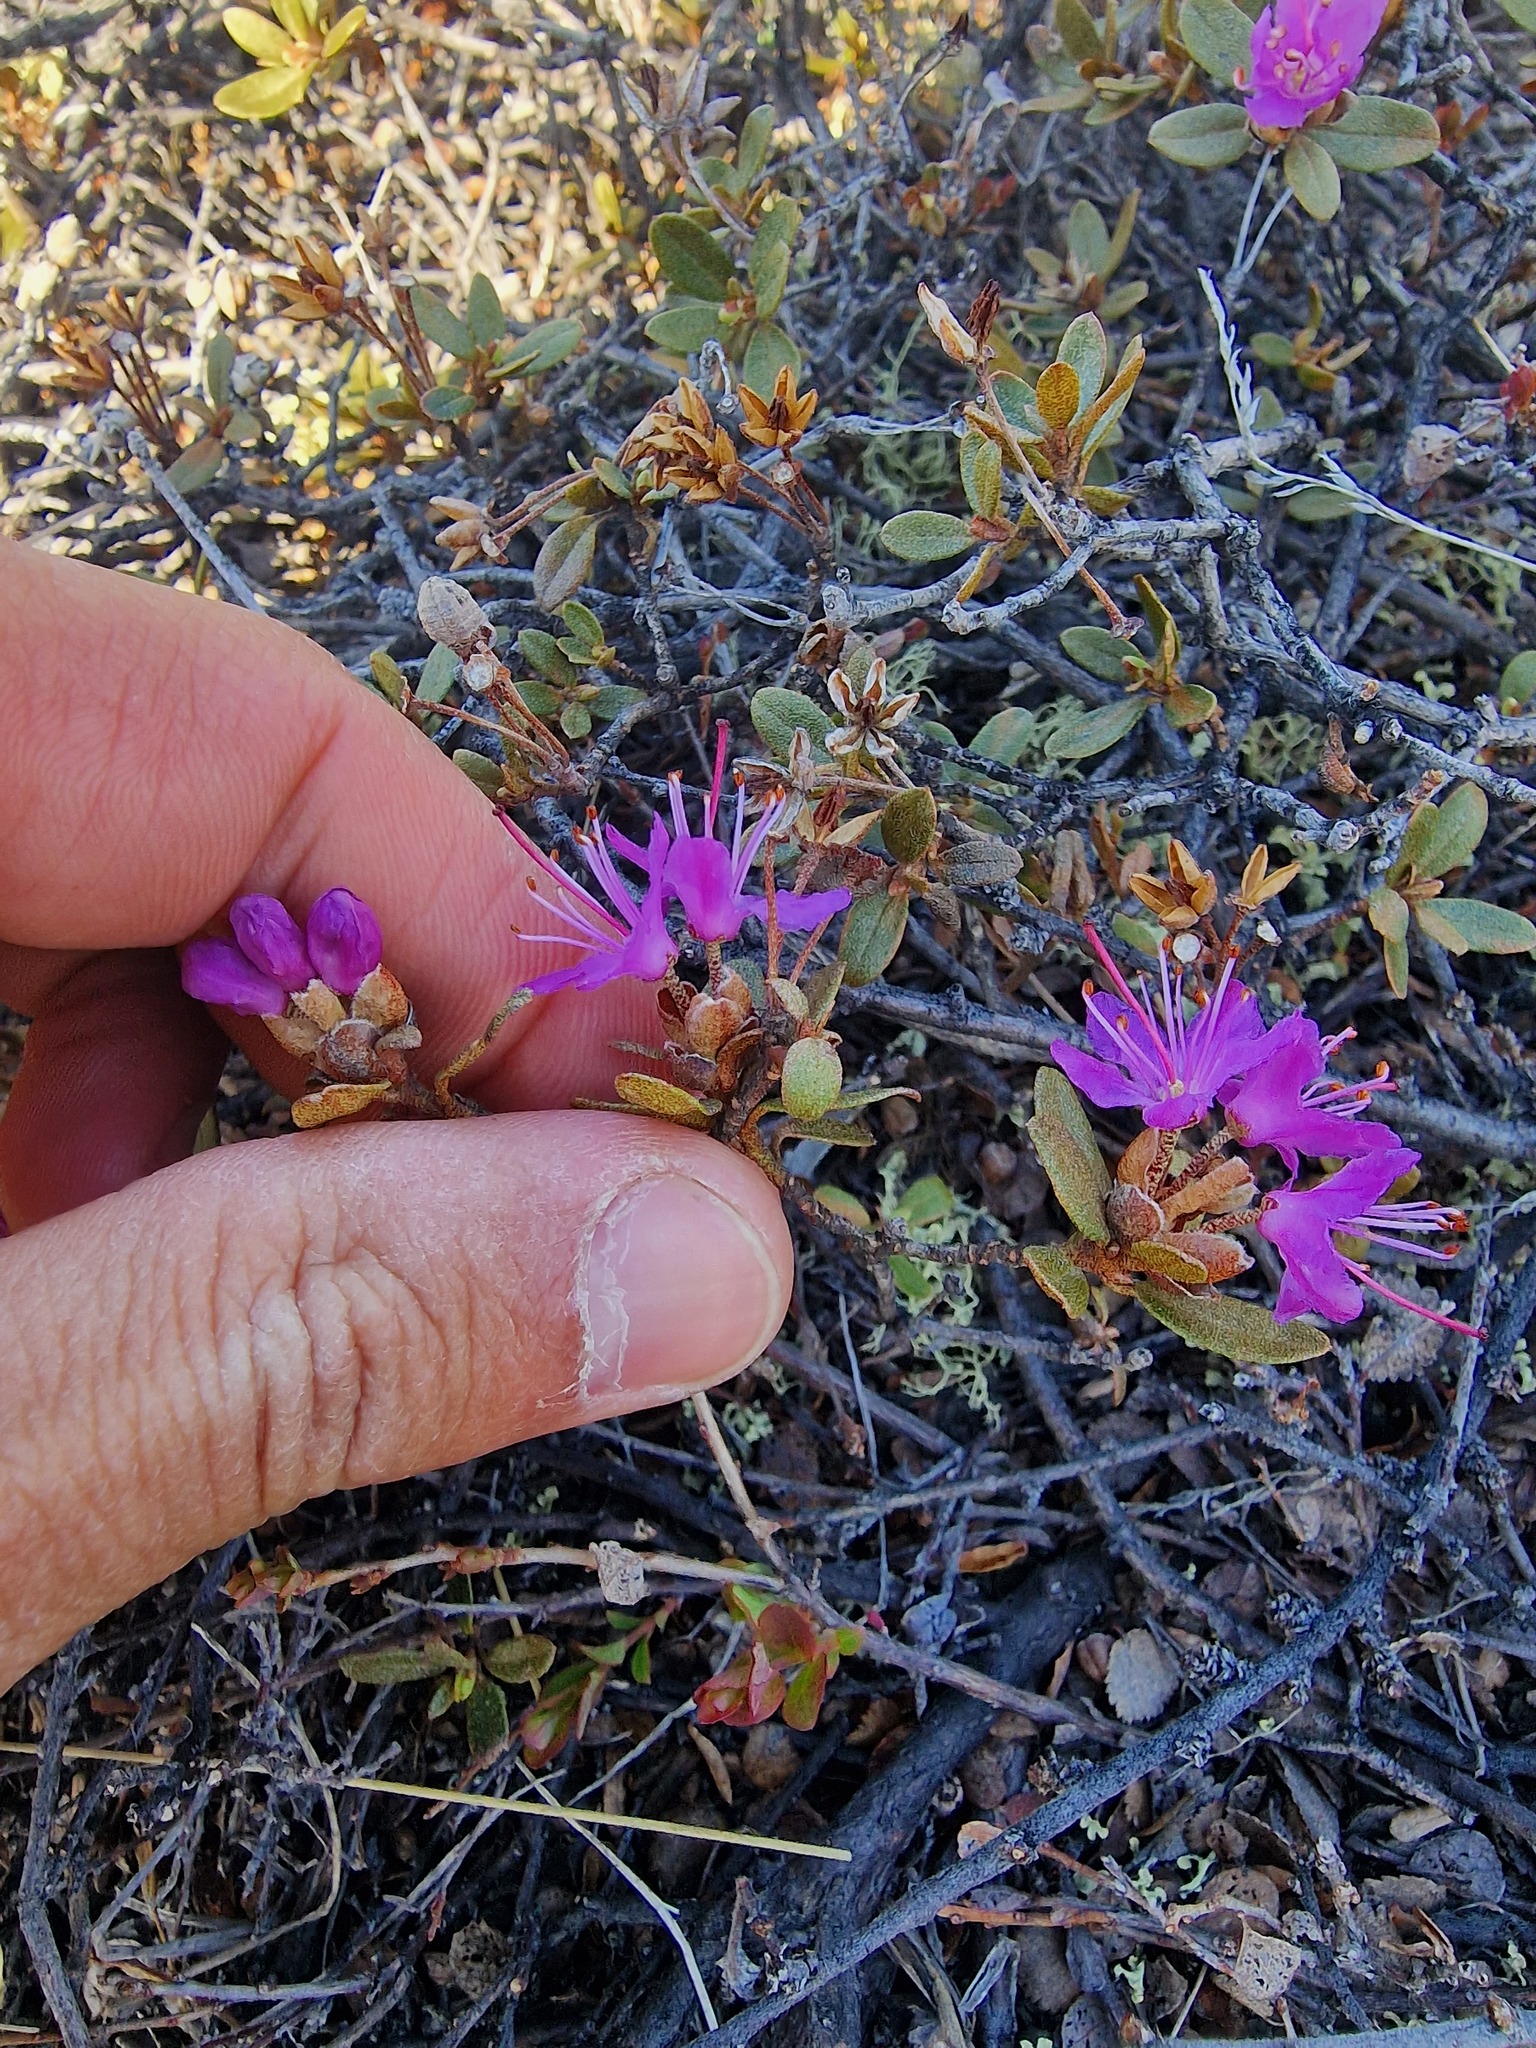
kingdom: Plantae
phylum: Tracheophyta
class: Magnoliopsida
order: Ericales
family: Ericaceae
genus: Rhododendron
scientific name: Rhododendron lapponicum
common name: Lapland rhododendron
